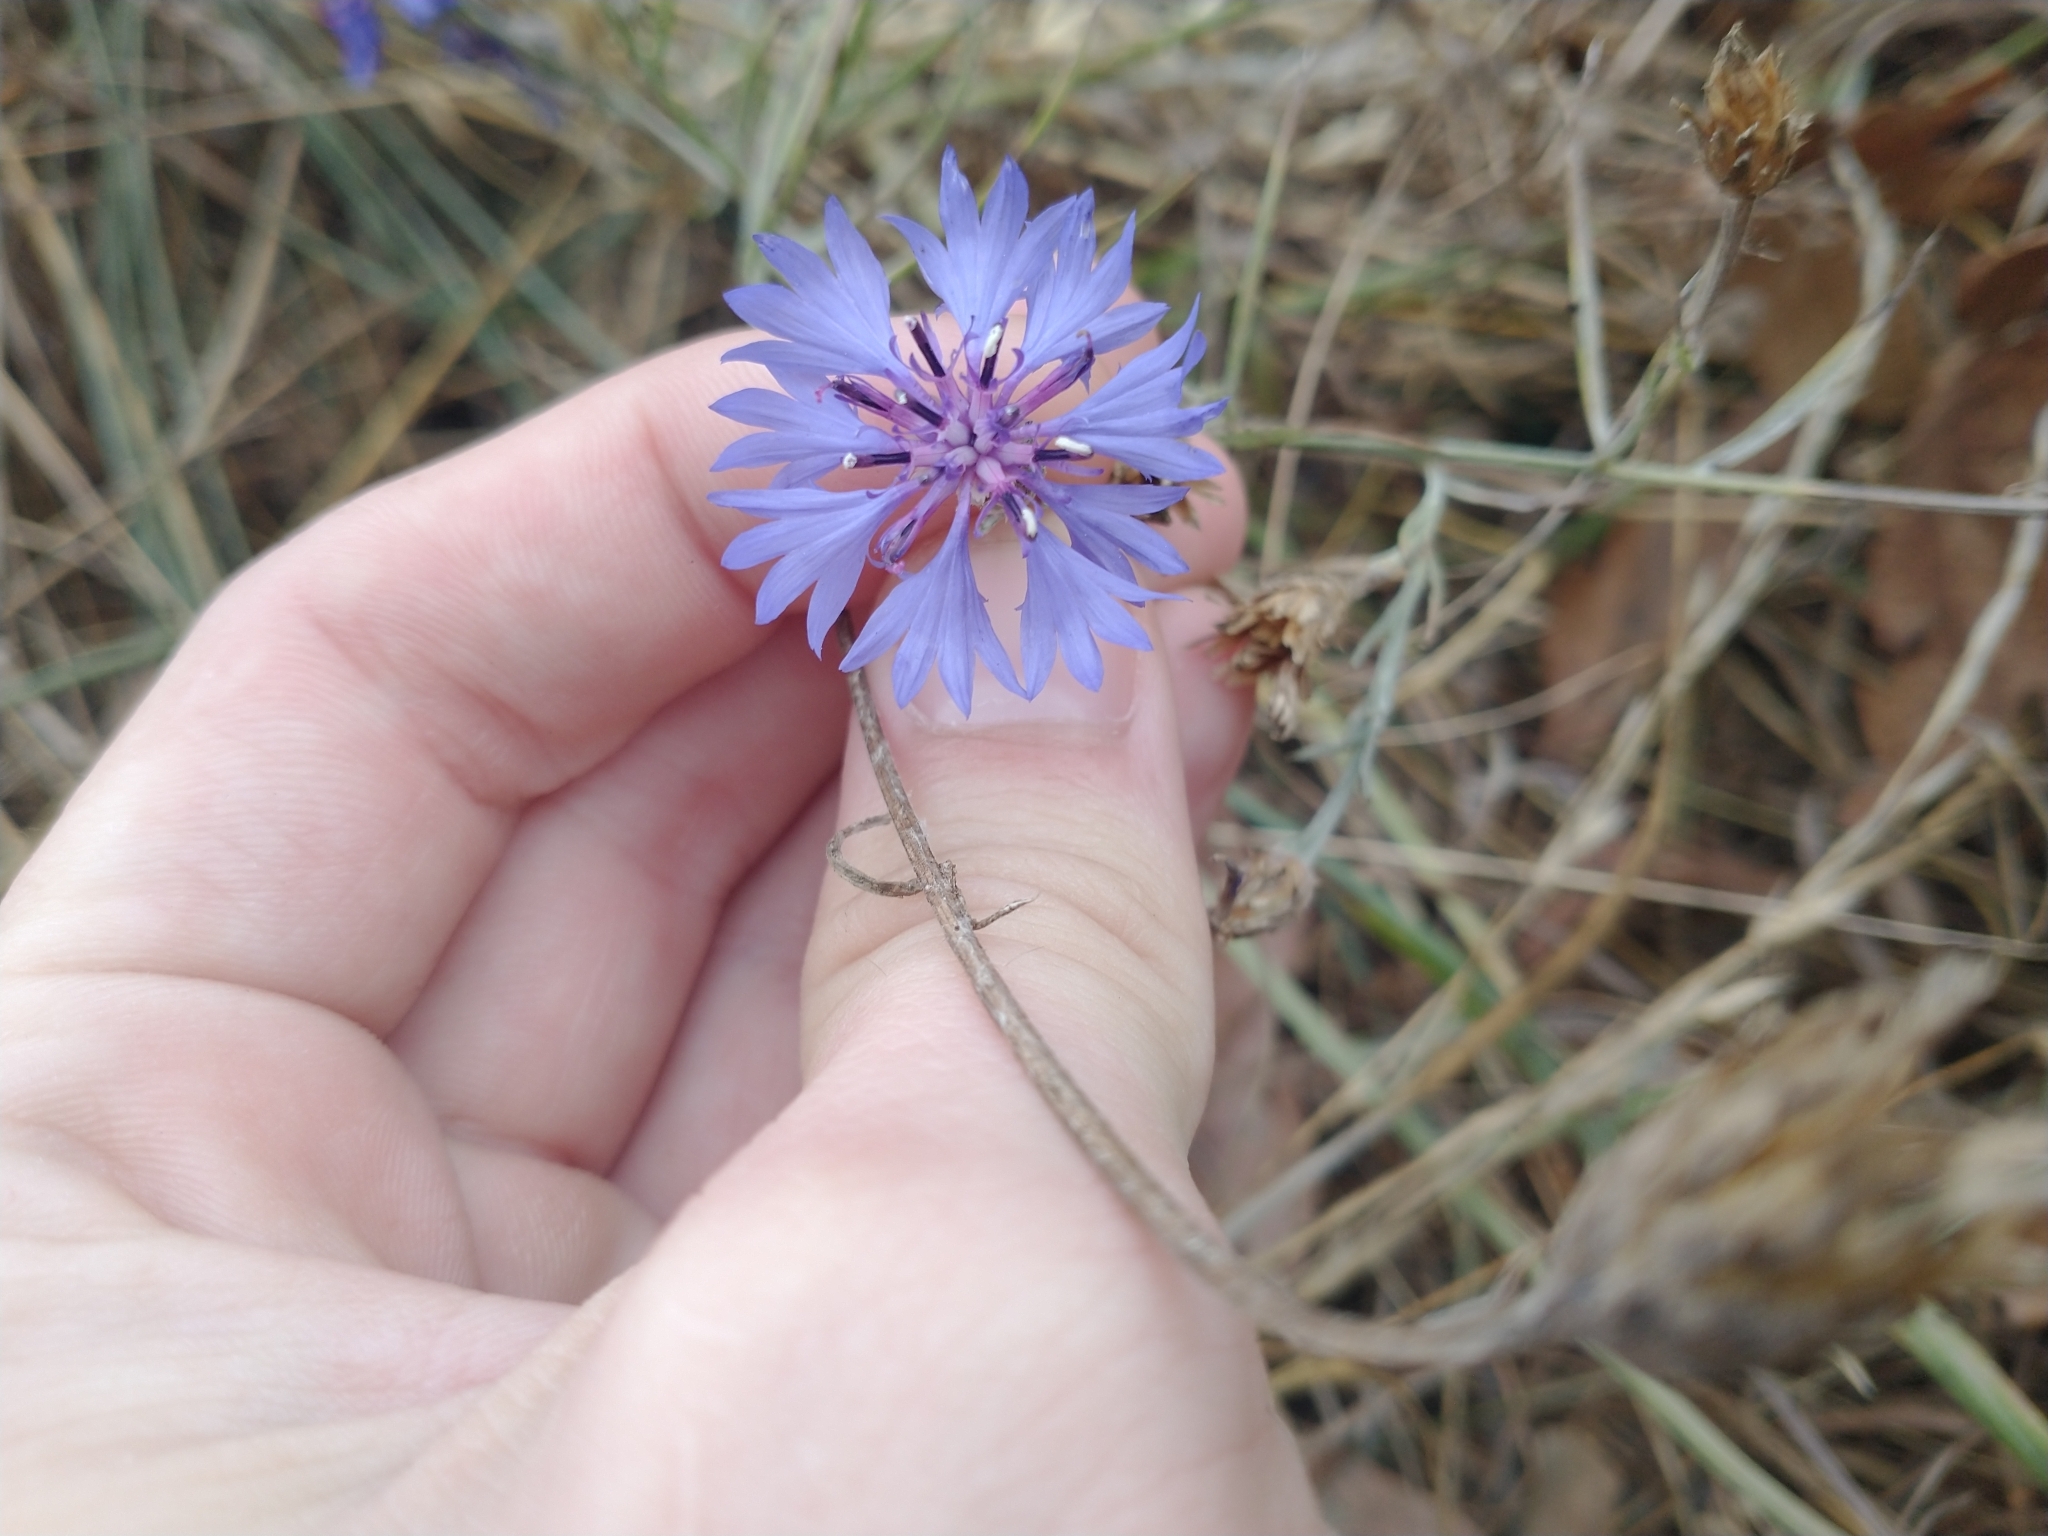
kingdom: Plantae
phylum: Tracheophyta
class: Magnoliopsida
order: Asterales
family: Asteraceae
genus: Centaurea
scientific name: Centaurea cyanus
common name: Cornflower
